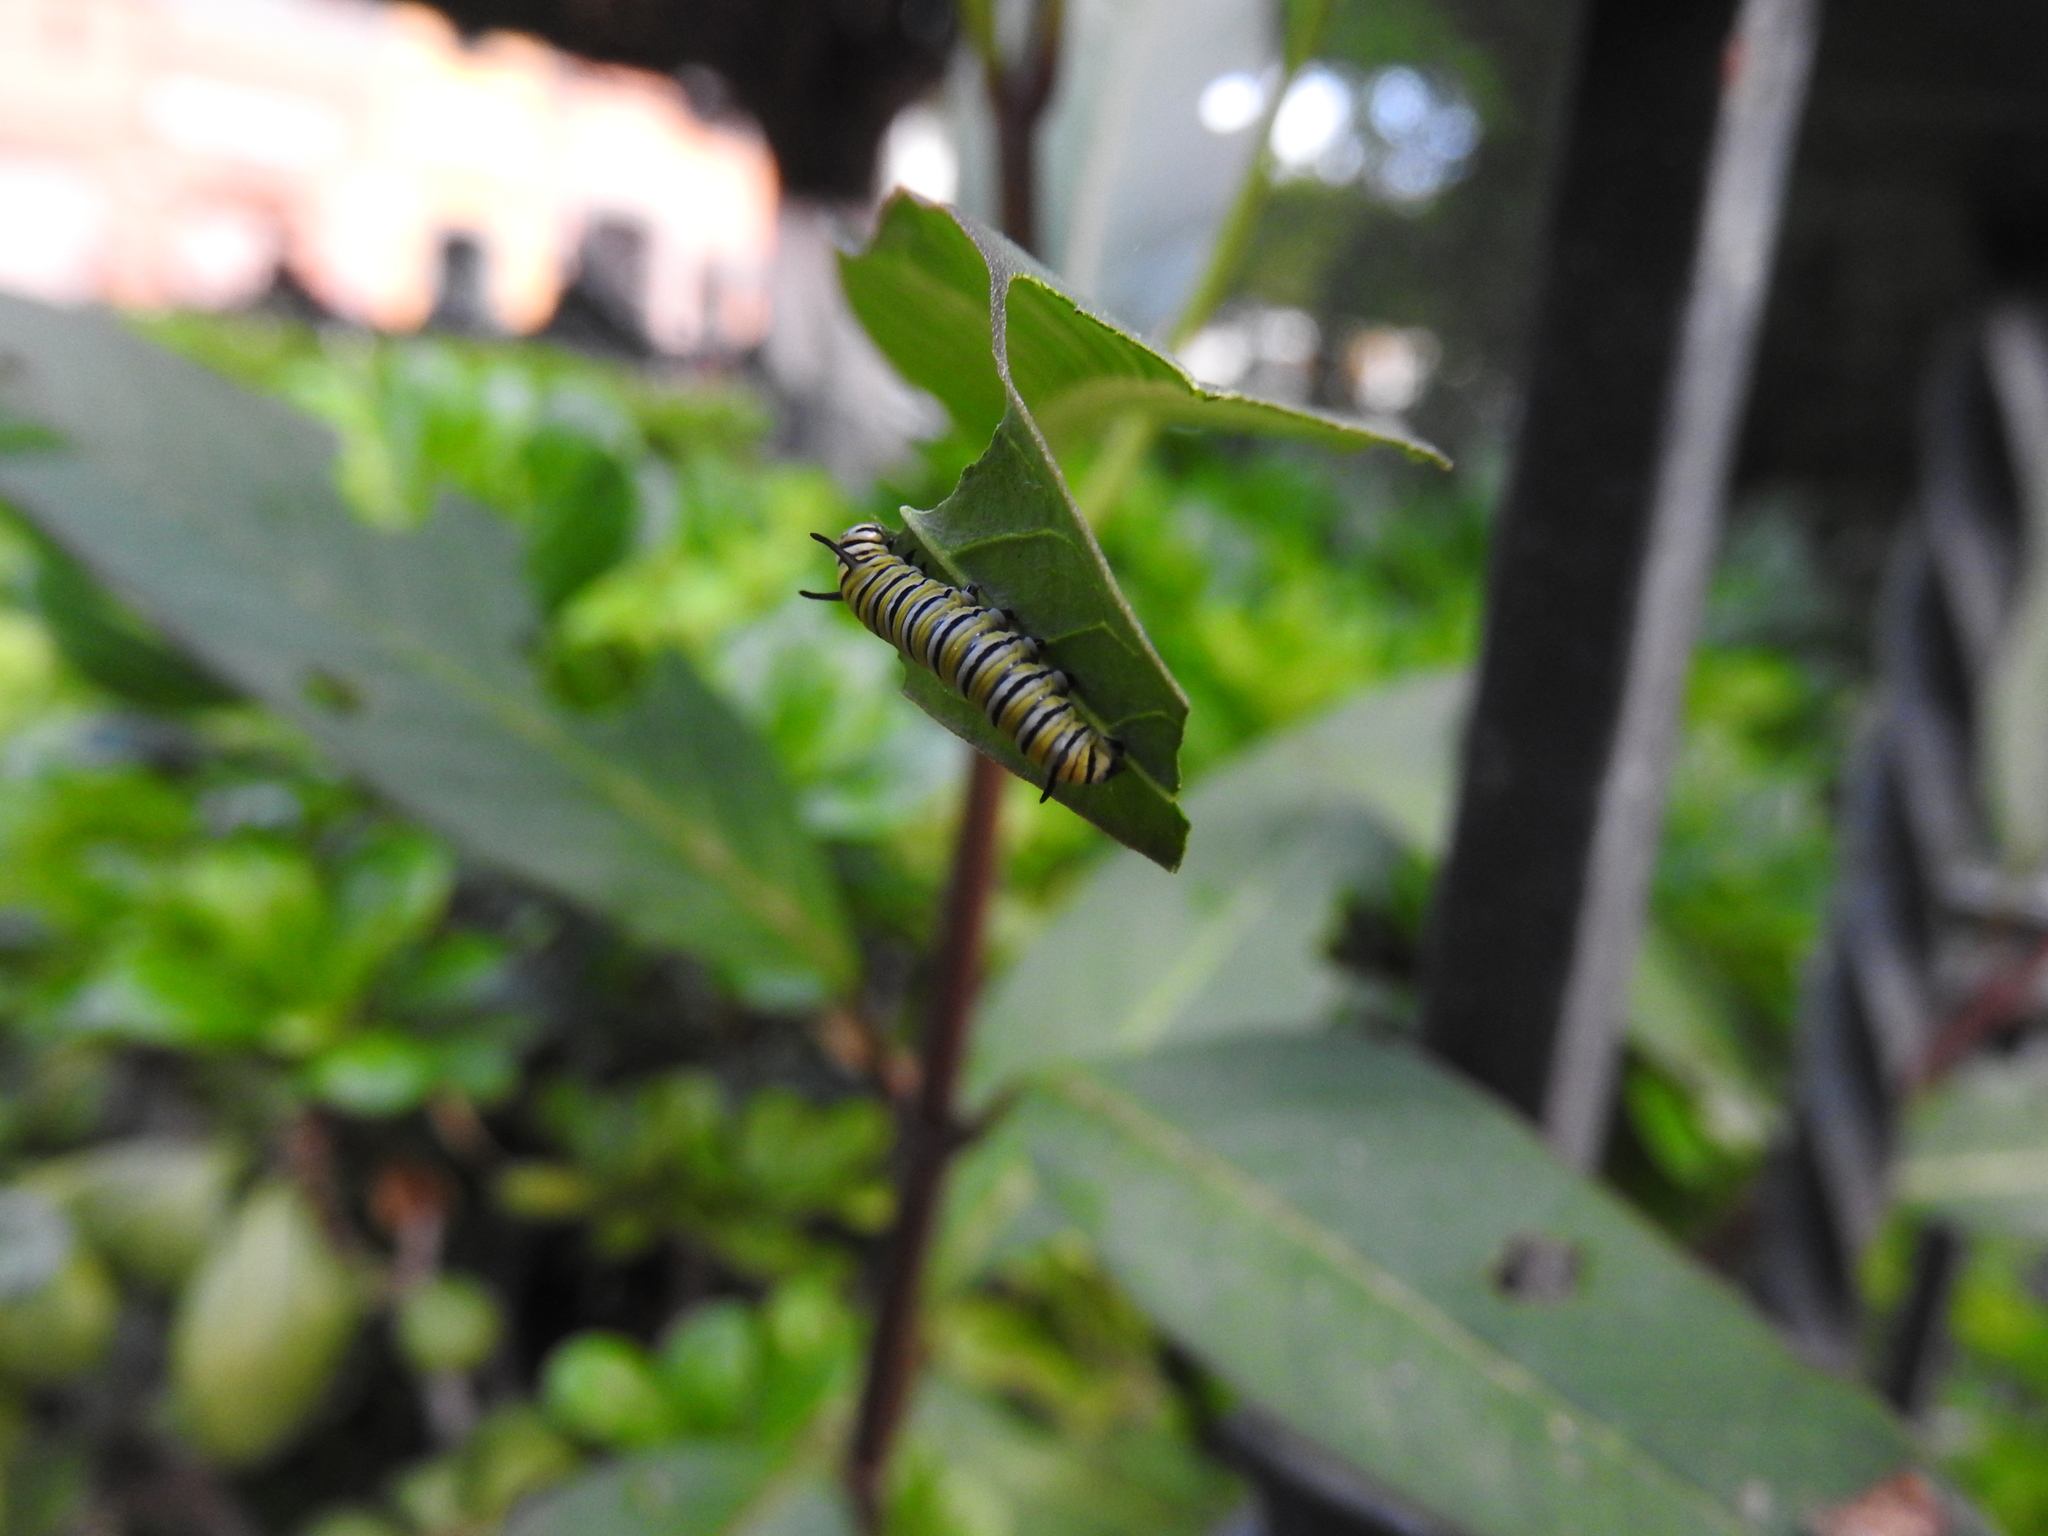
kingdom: Animalia
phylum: Arthropoda
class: Insecta
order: Lepidoptera
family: Nymphalidae
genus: Danaus
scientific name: Danaus plexippus
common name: Monarch
